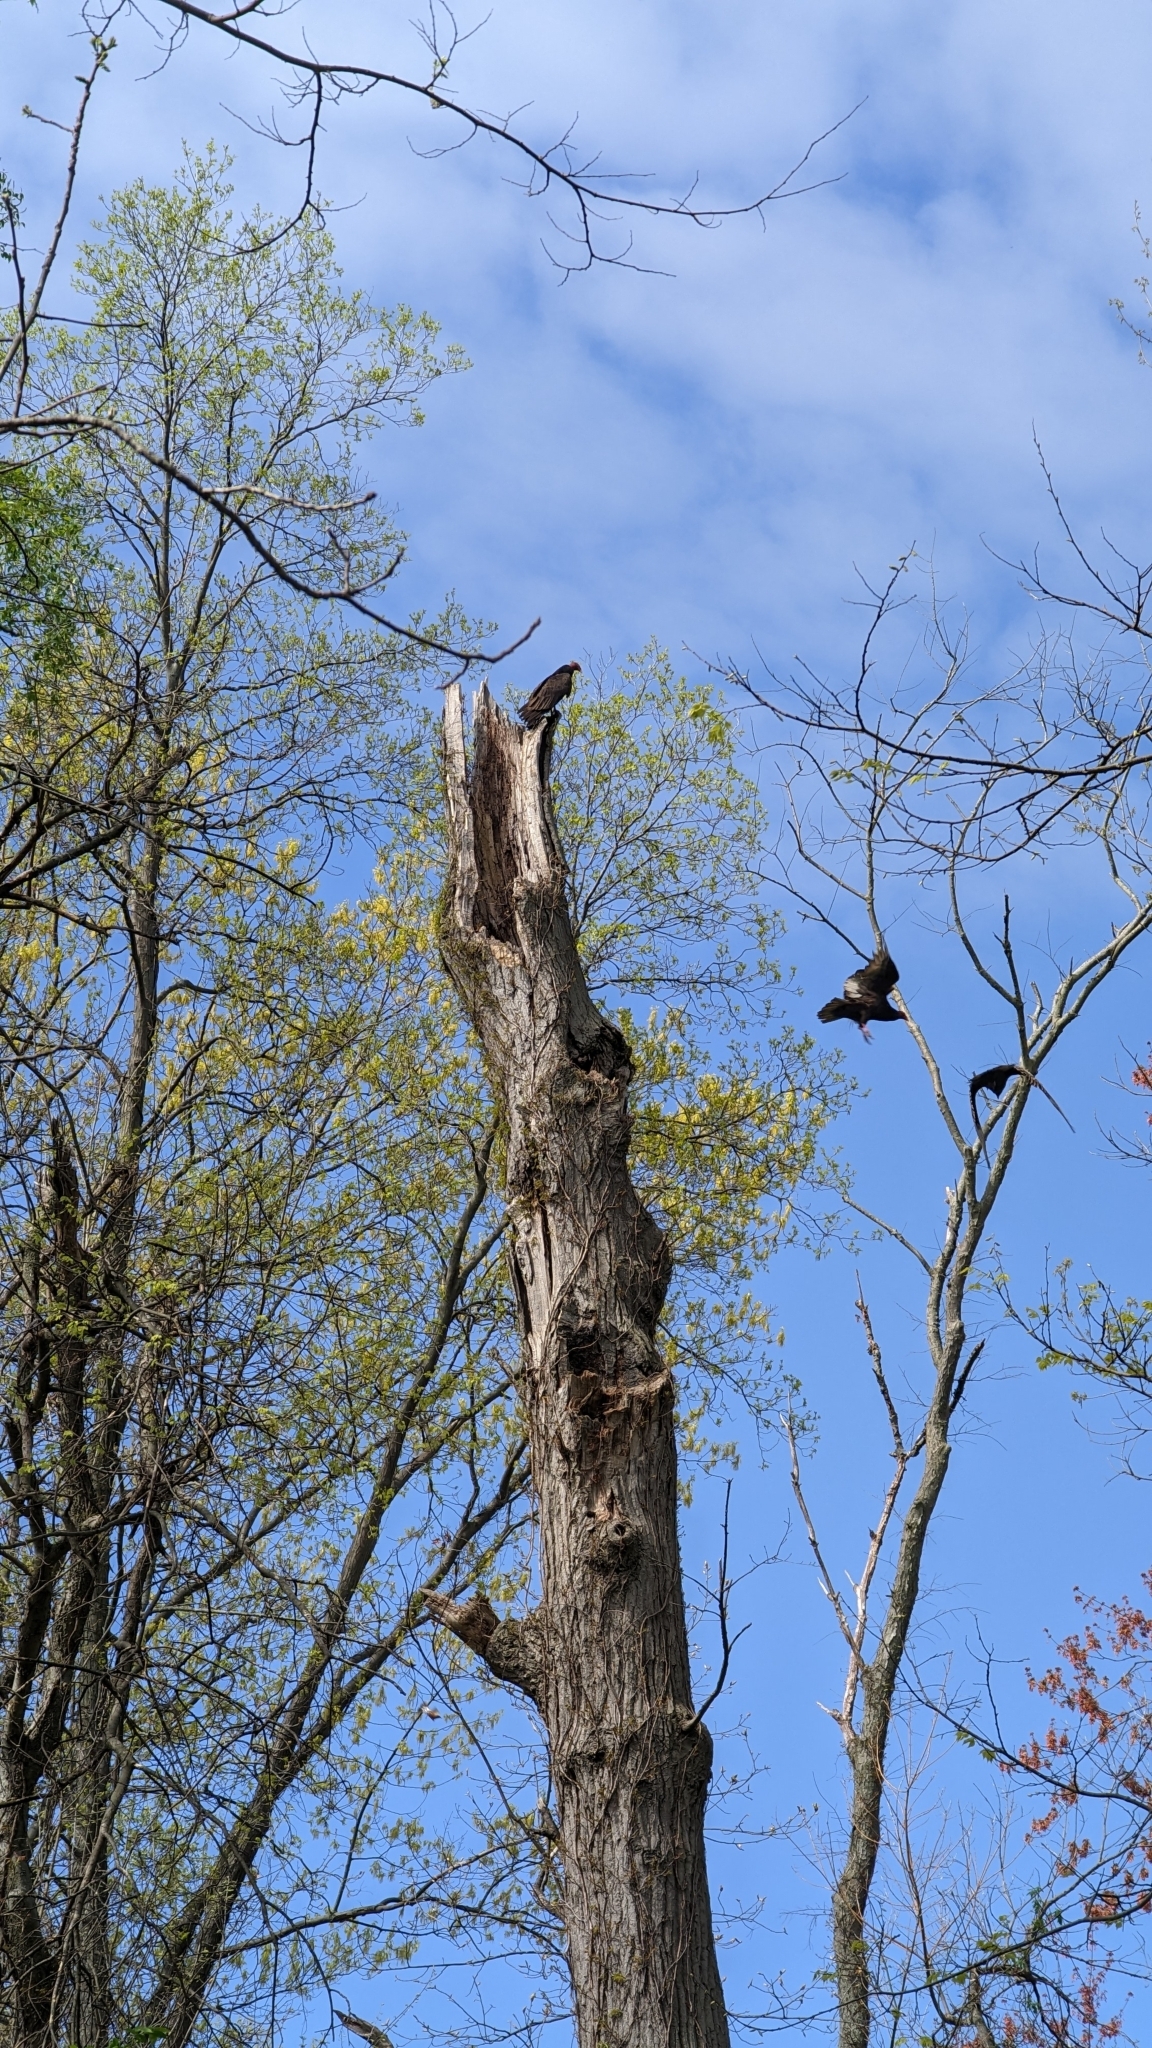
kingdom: Animalia
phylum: Chordata
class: Aves
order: Accipitriformes
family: Cathartidae
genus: Cathartes
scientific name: Cathartes aura
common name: Turkey vulture
